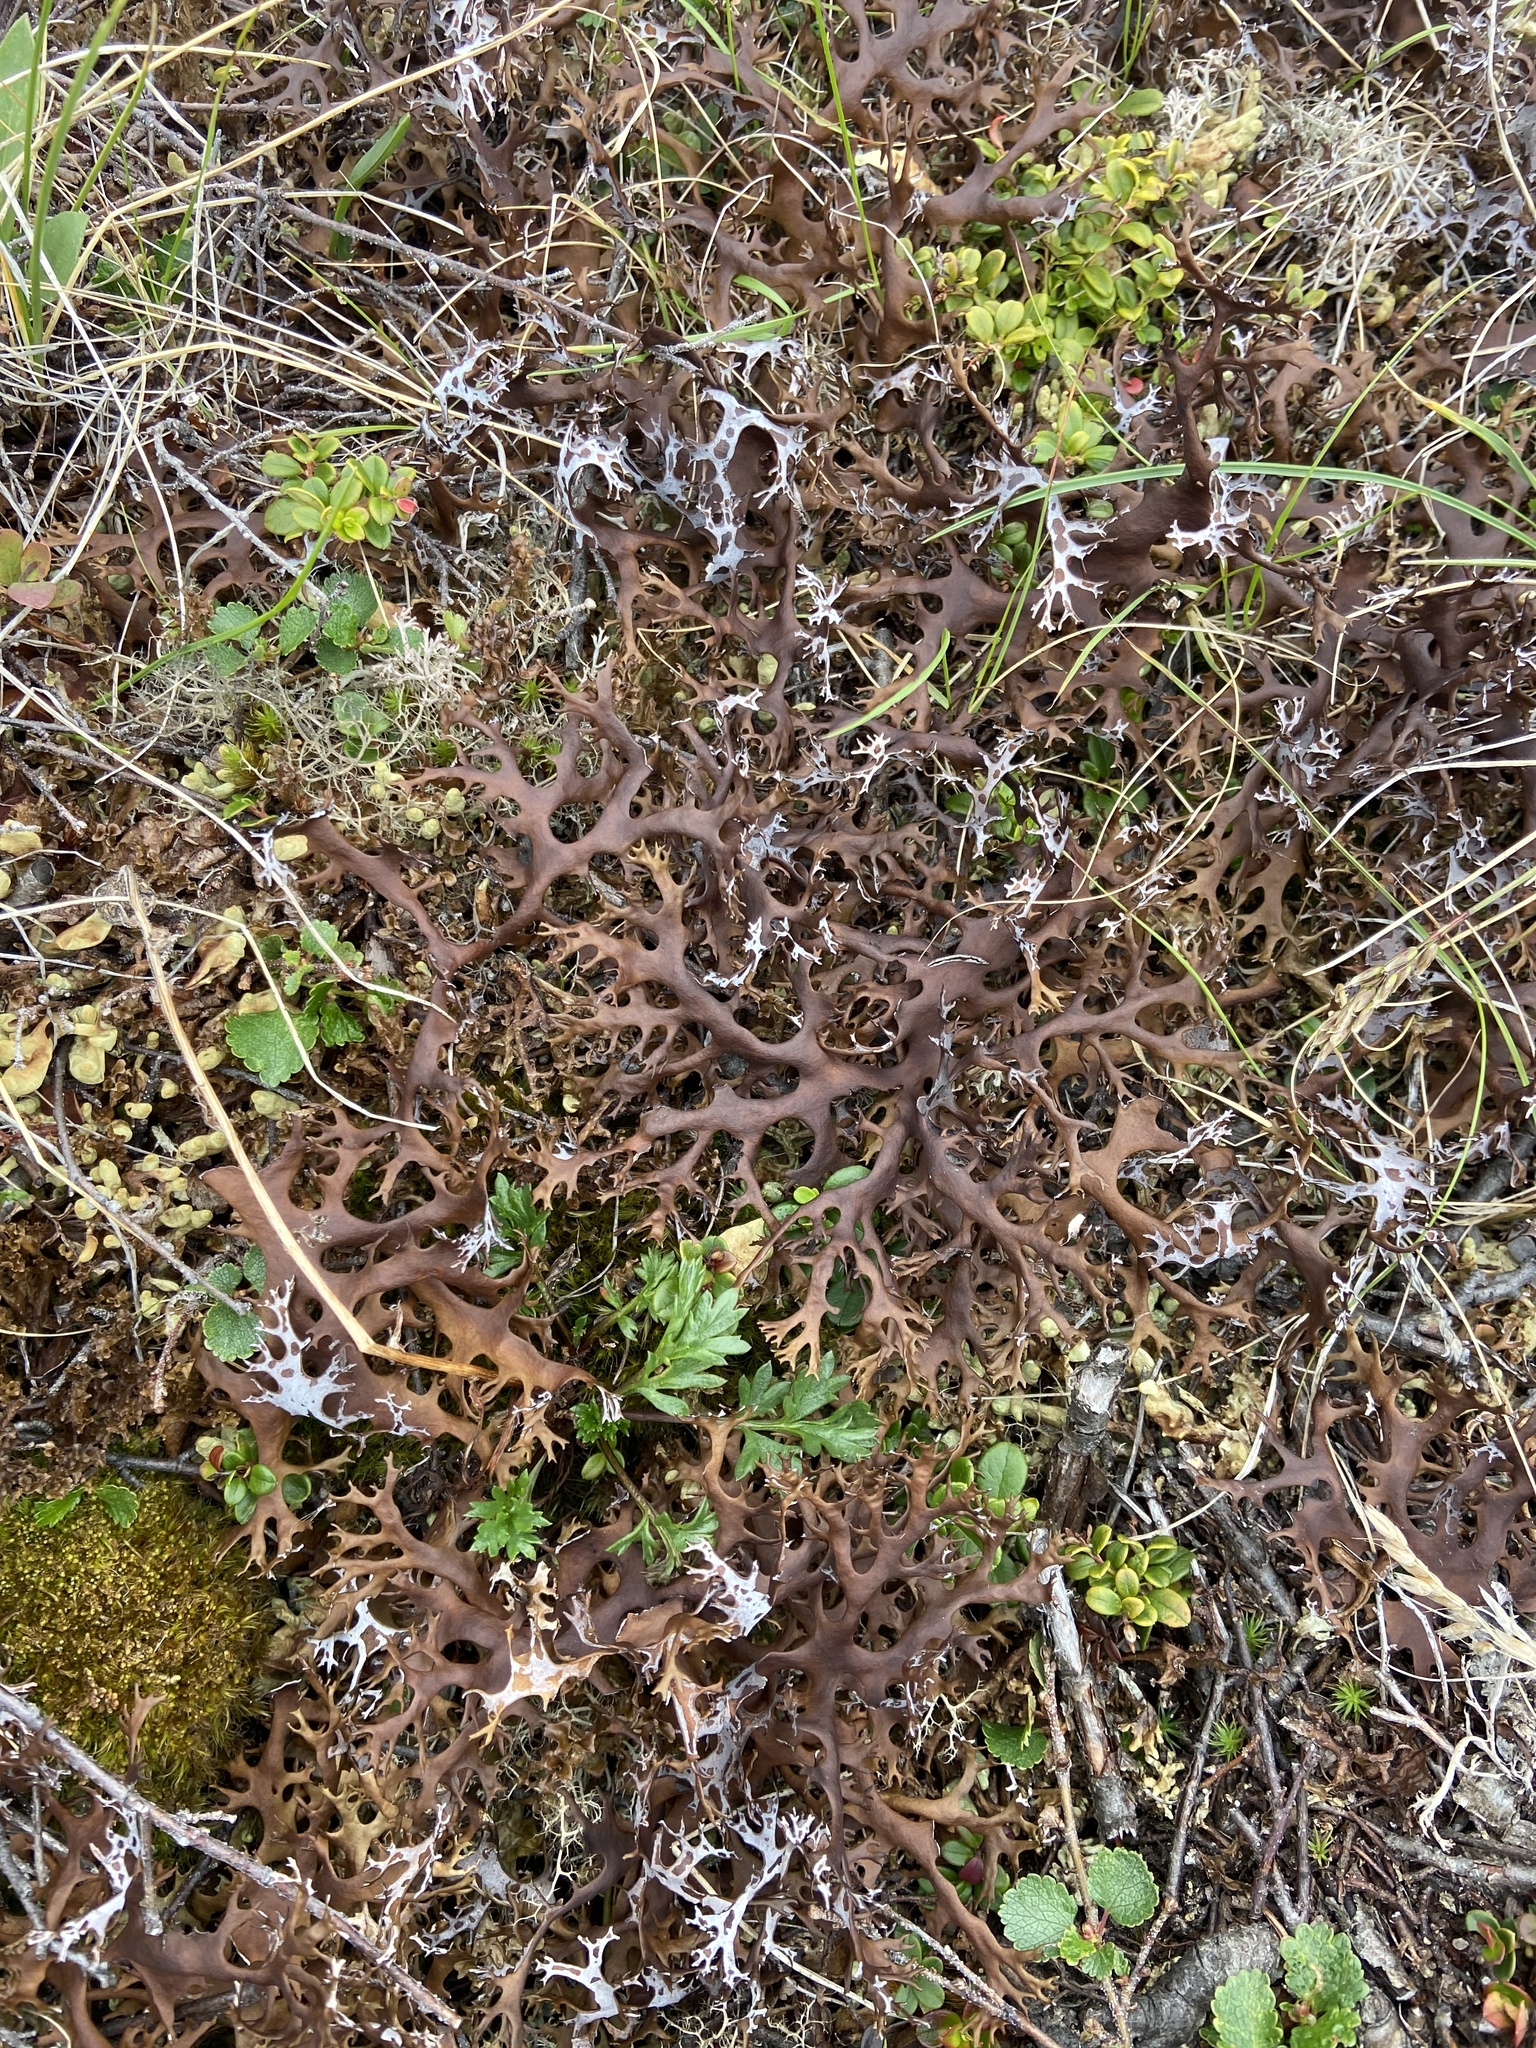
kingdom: Fungi
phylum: Ascomycota
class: Lecanoromycetes
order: Lecanorales
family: Parmeliaceae
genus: Nephromopsis
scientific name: Nephromopsis richardsonii
